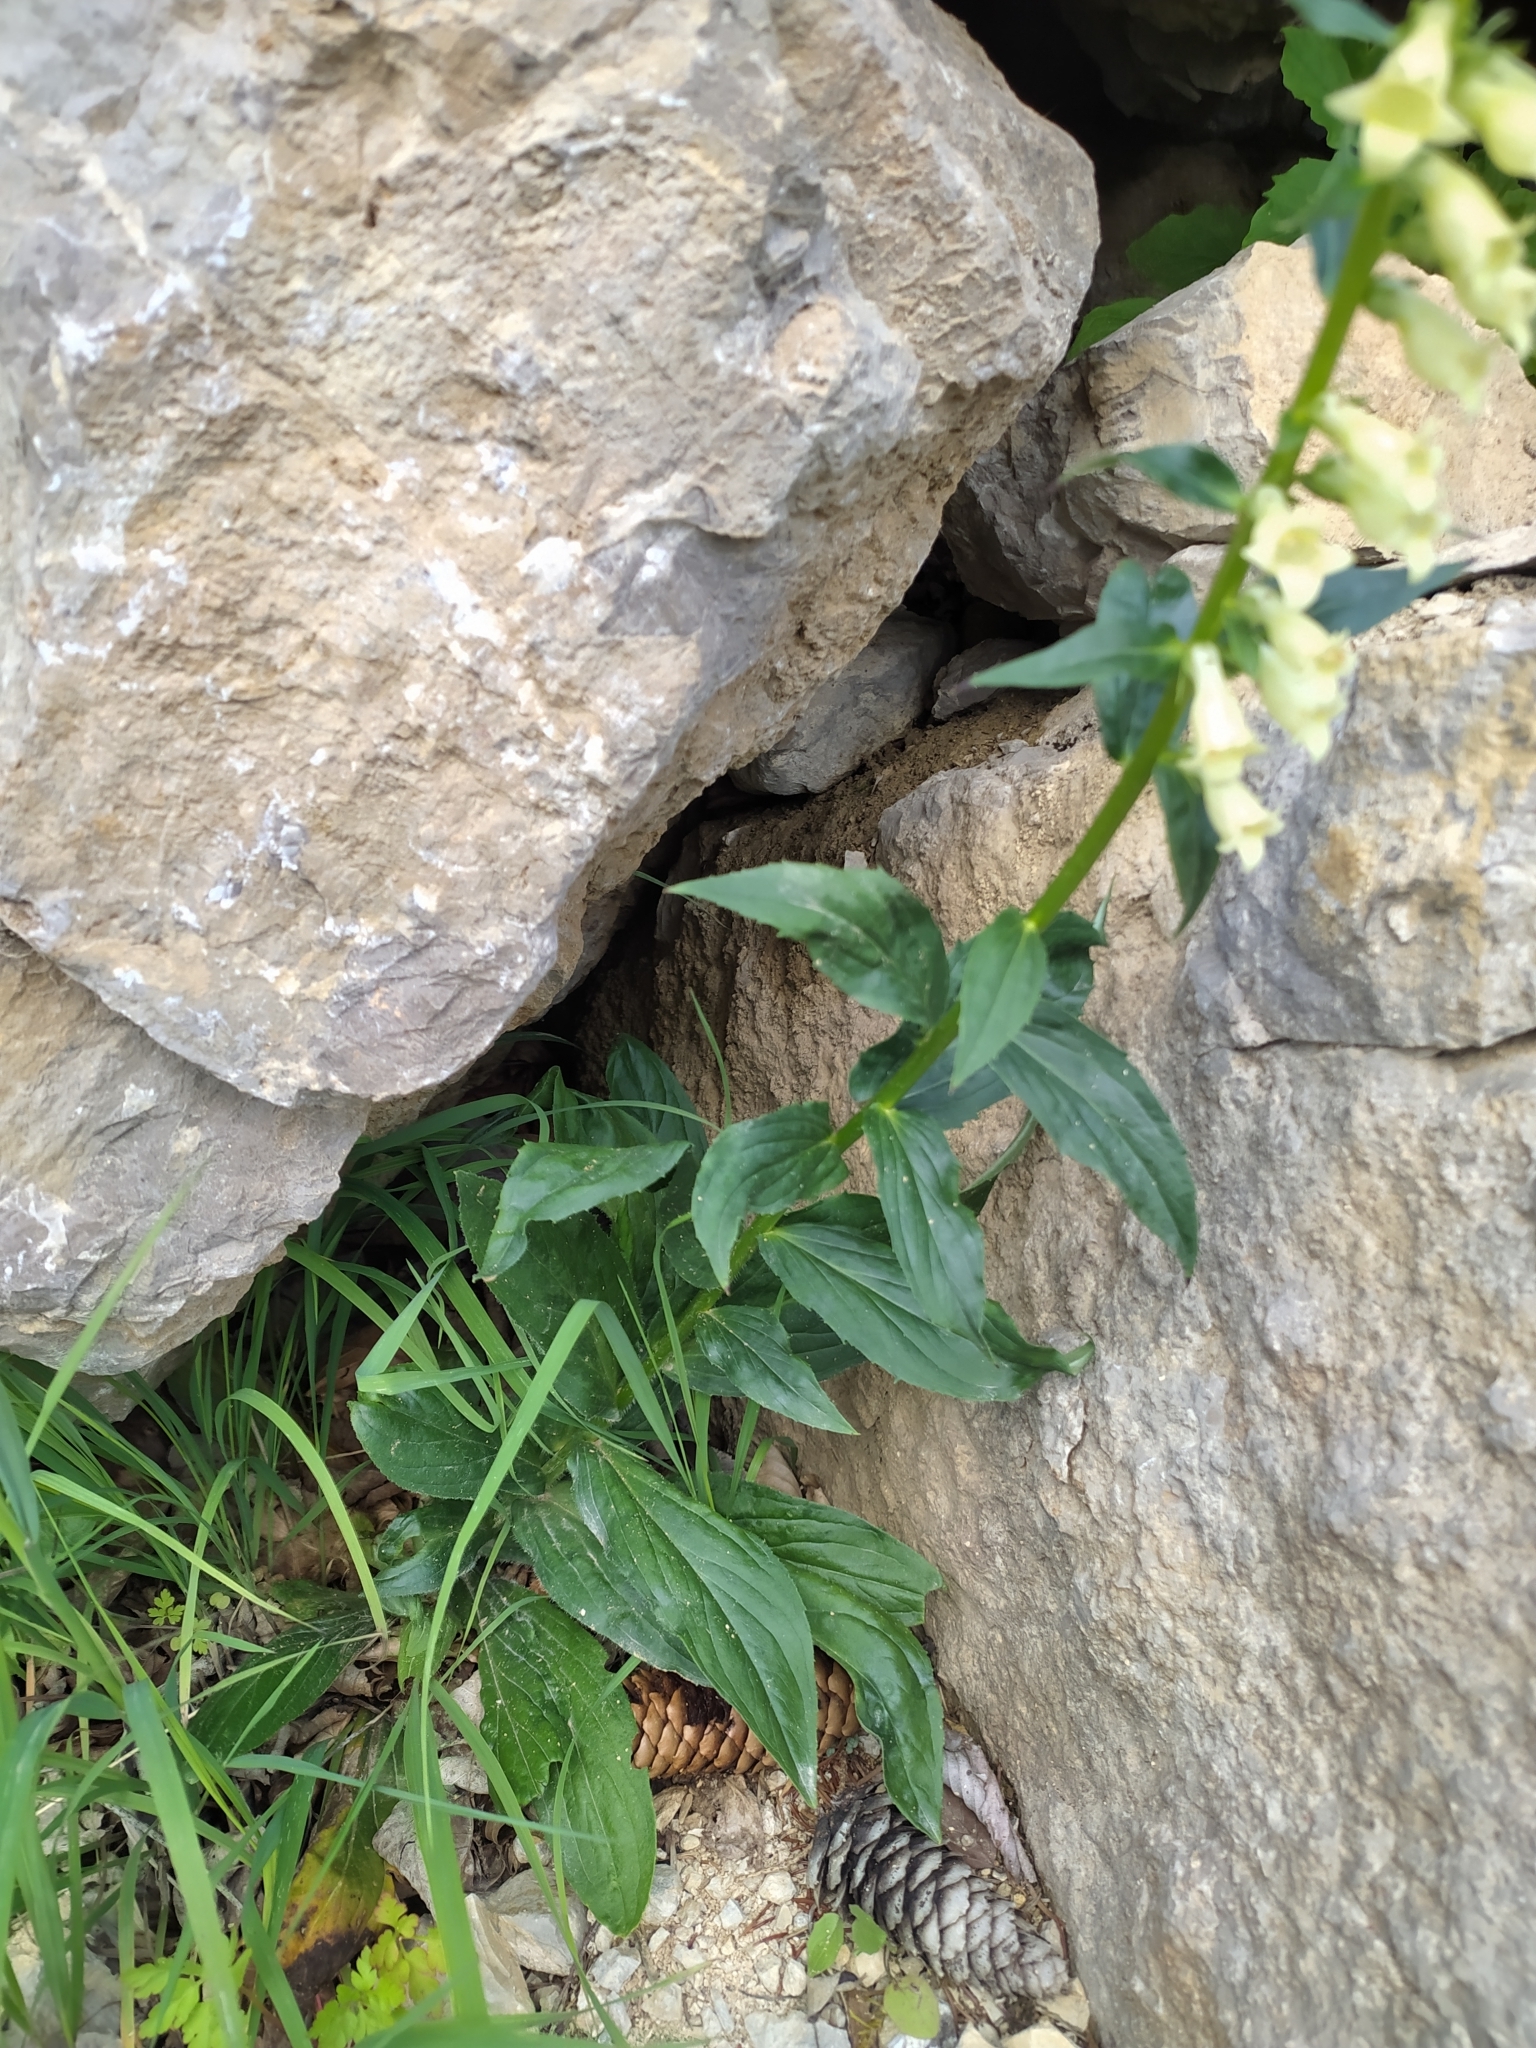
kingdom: Plantae
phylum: Tracheophyta
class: Magnoliopsida
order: Lamiales
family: Plantaginaceae
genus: Digitalis
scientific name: Digitalis lutea
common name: Straw foxglove
